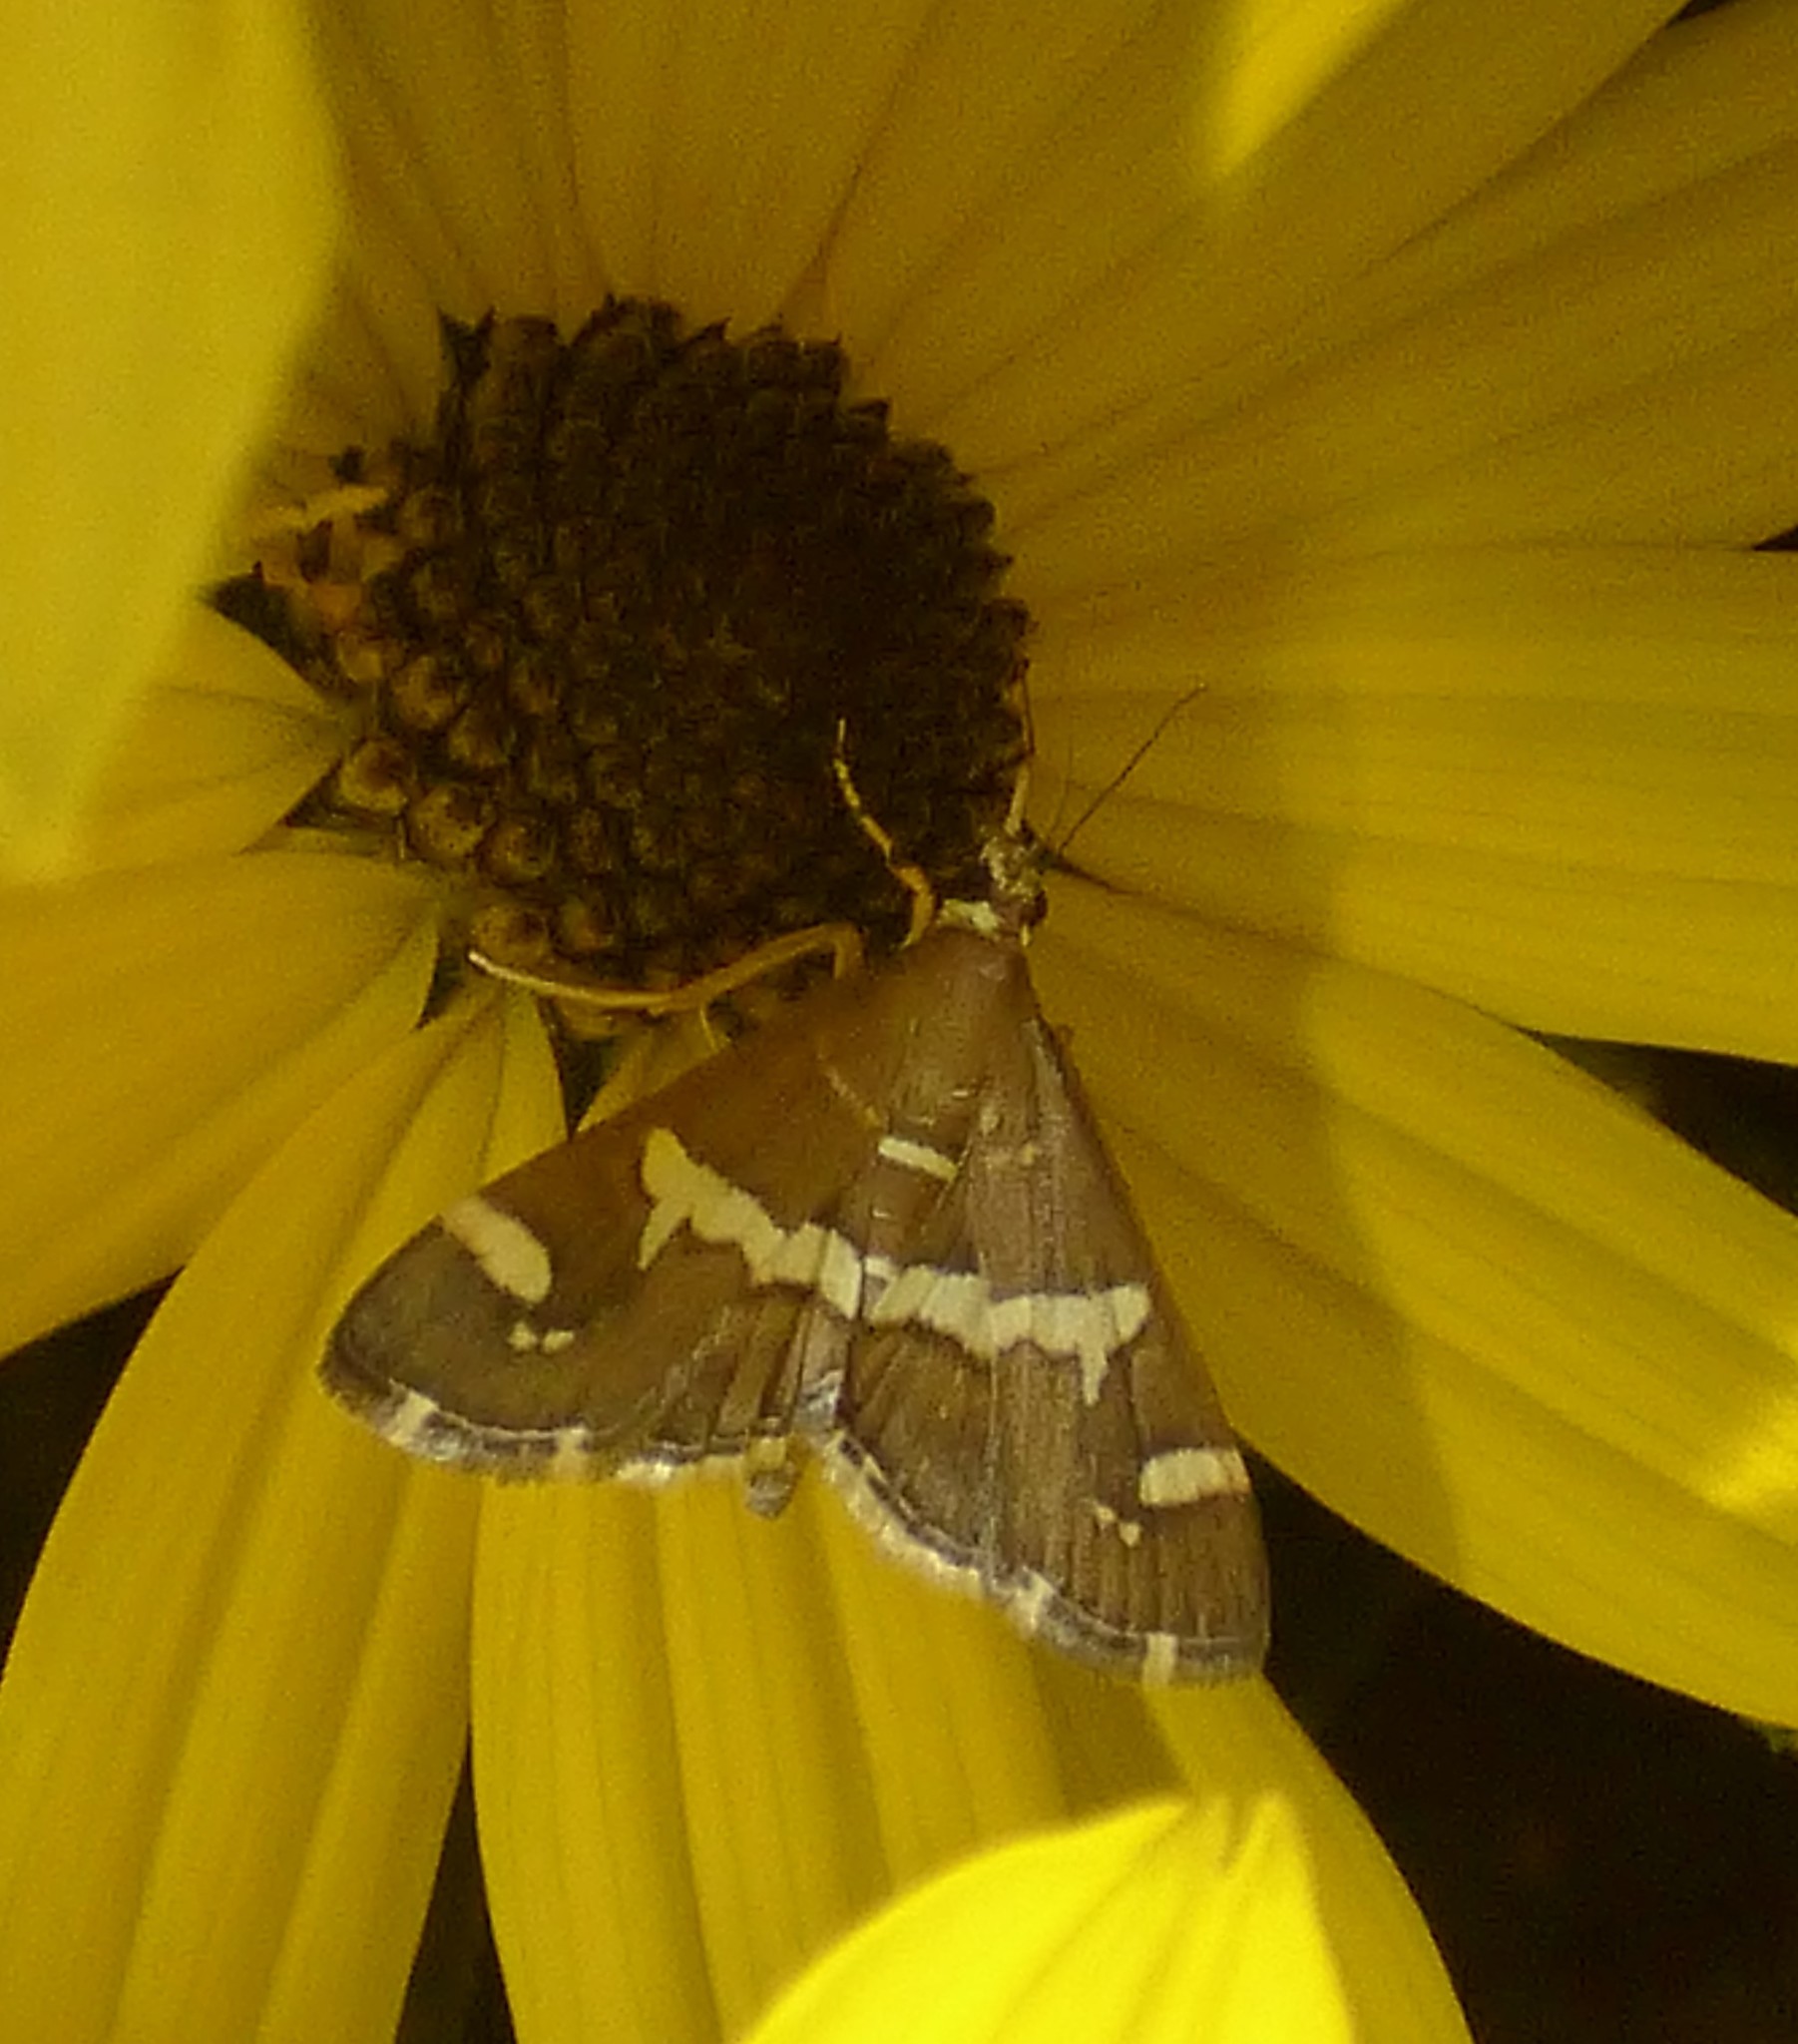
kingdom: Animalia
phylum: Arthropoda
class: Insecta
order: Lepidoptera
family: Crambidae
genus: Spoladea
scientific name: Spoladea recurvalis
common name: Beet webworm moth
